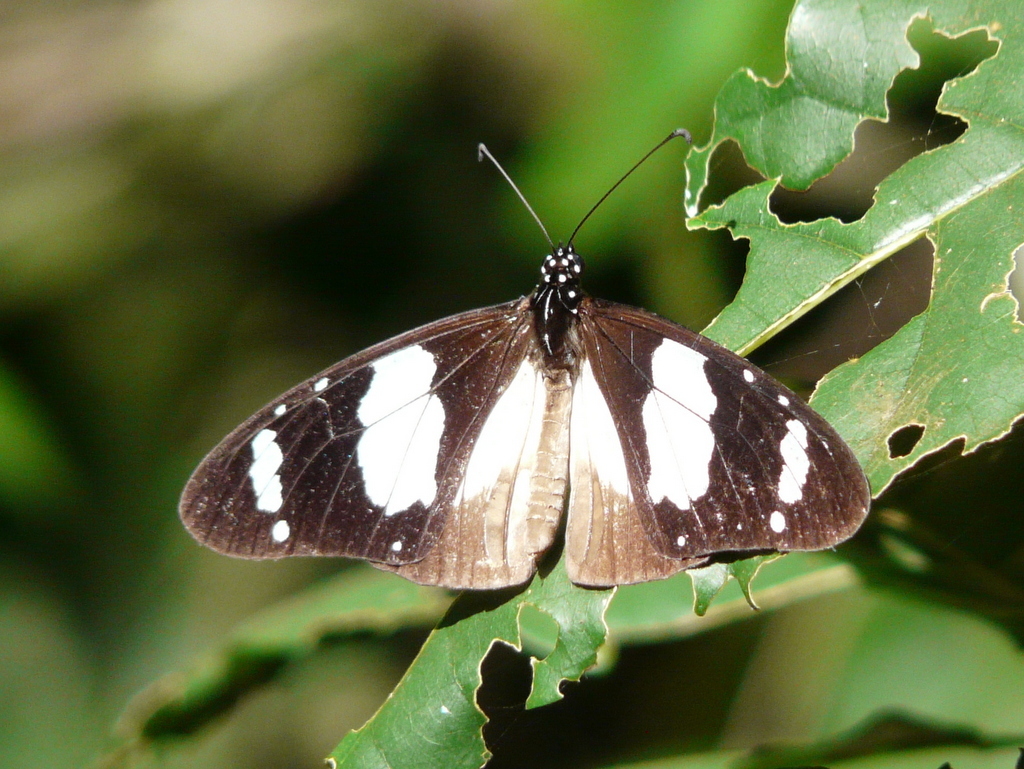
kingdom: Animalia
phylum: Arthropoda
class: Insecta
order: Lepidoptera
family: Nymphalidae
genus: Amauris
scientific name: Amauris ochlea
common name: Novice
